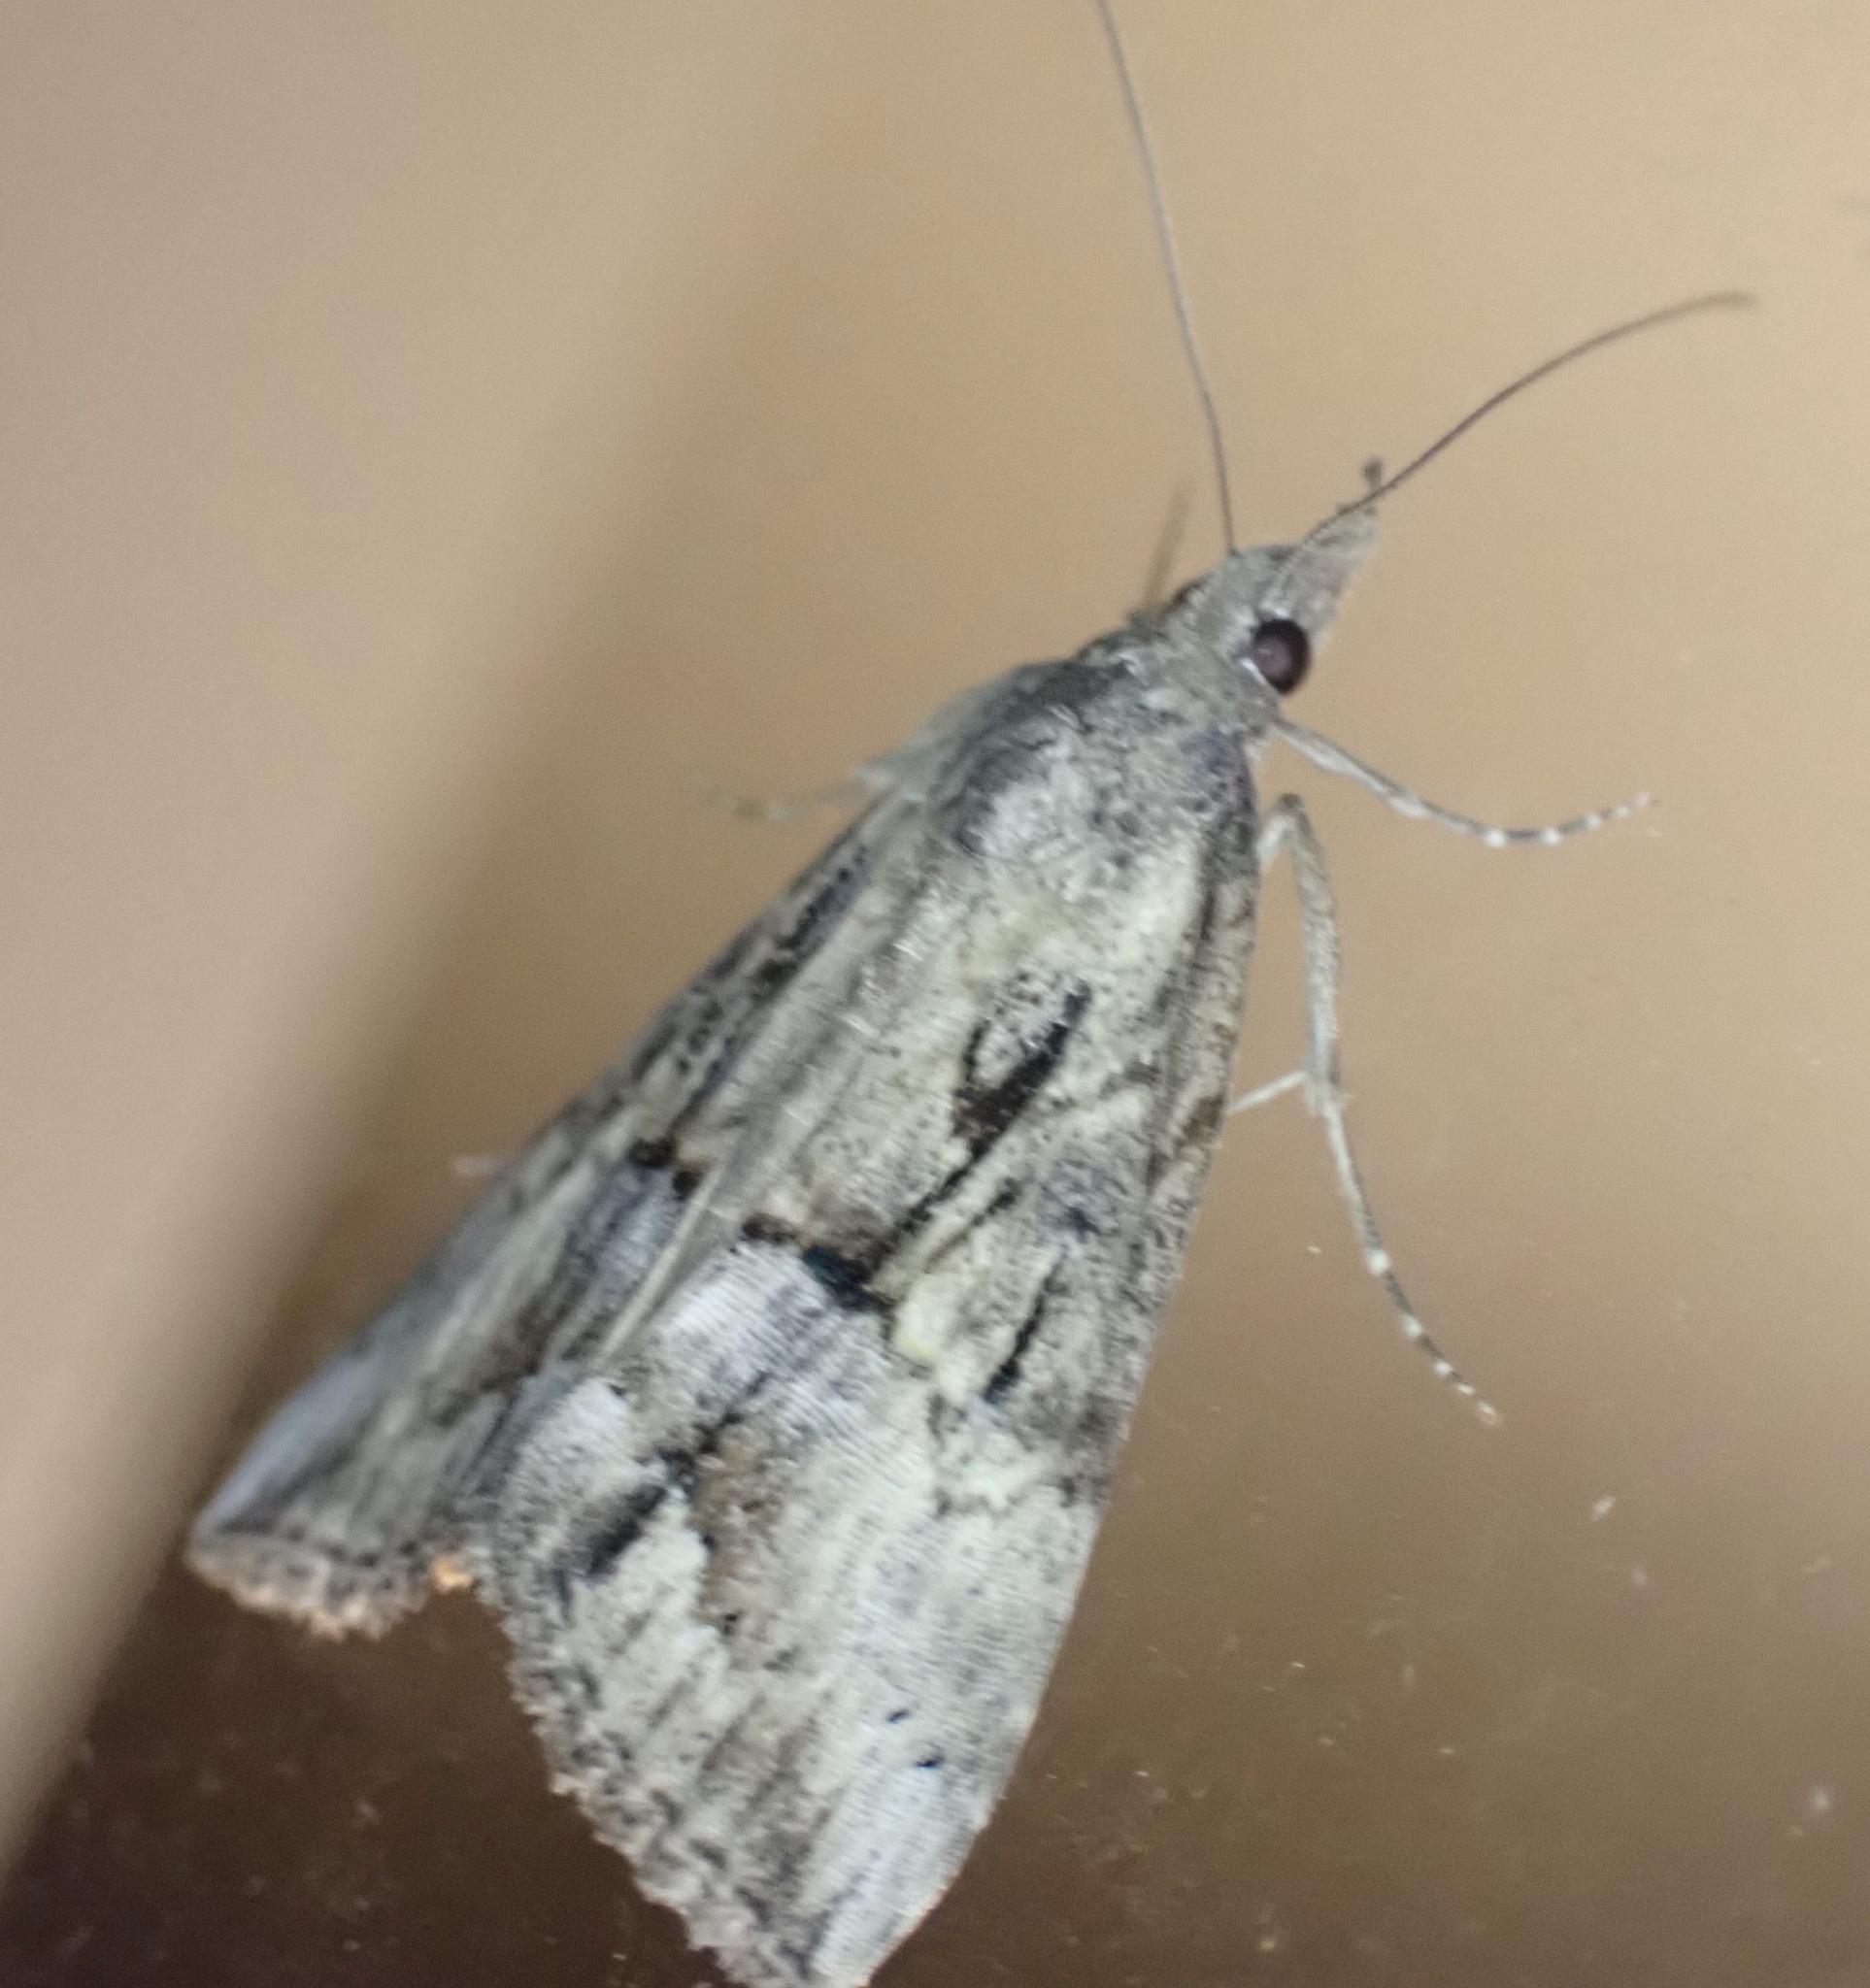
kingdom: Animalia
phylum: Arthropoda
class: Insecta
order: Lepidoptera
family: Erebidae
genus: Hypena
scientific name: Hypena scabra
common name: Green cloverworm
